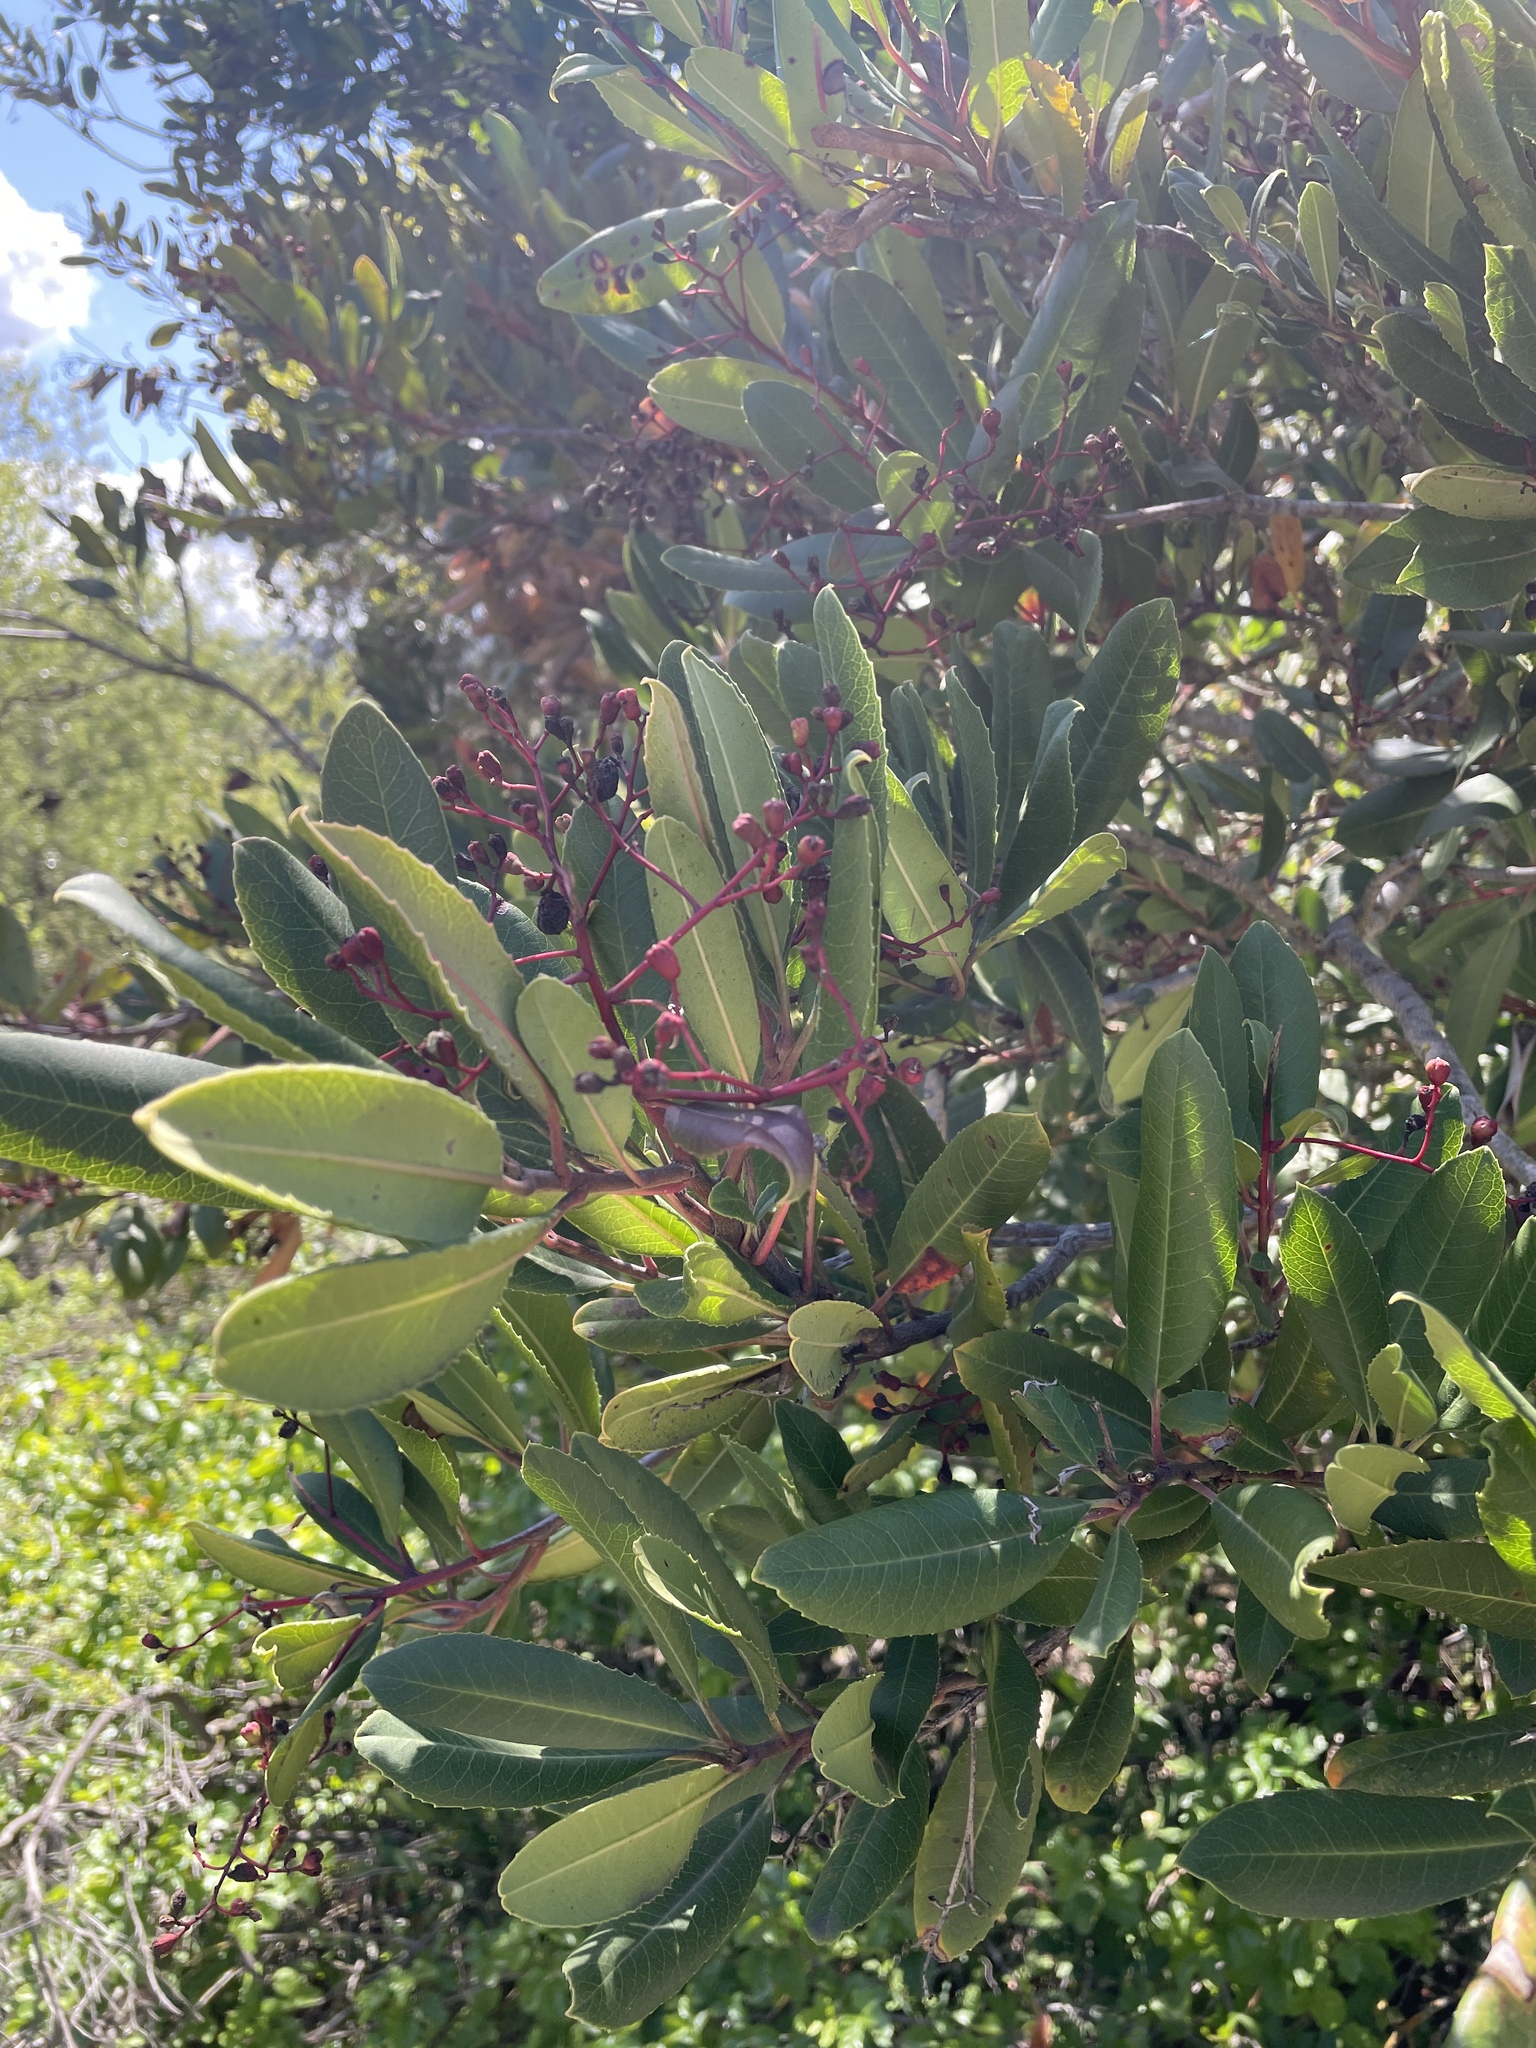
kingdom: Plantae
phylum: Tracheophyta
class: Magnoliopsida
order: Rosales
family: Rosaceae
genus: Heteromeles
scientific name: Heteromeles arbutifolia
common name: California-holly
